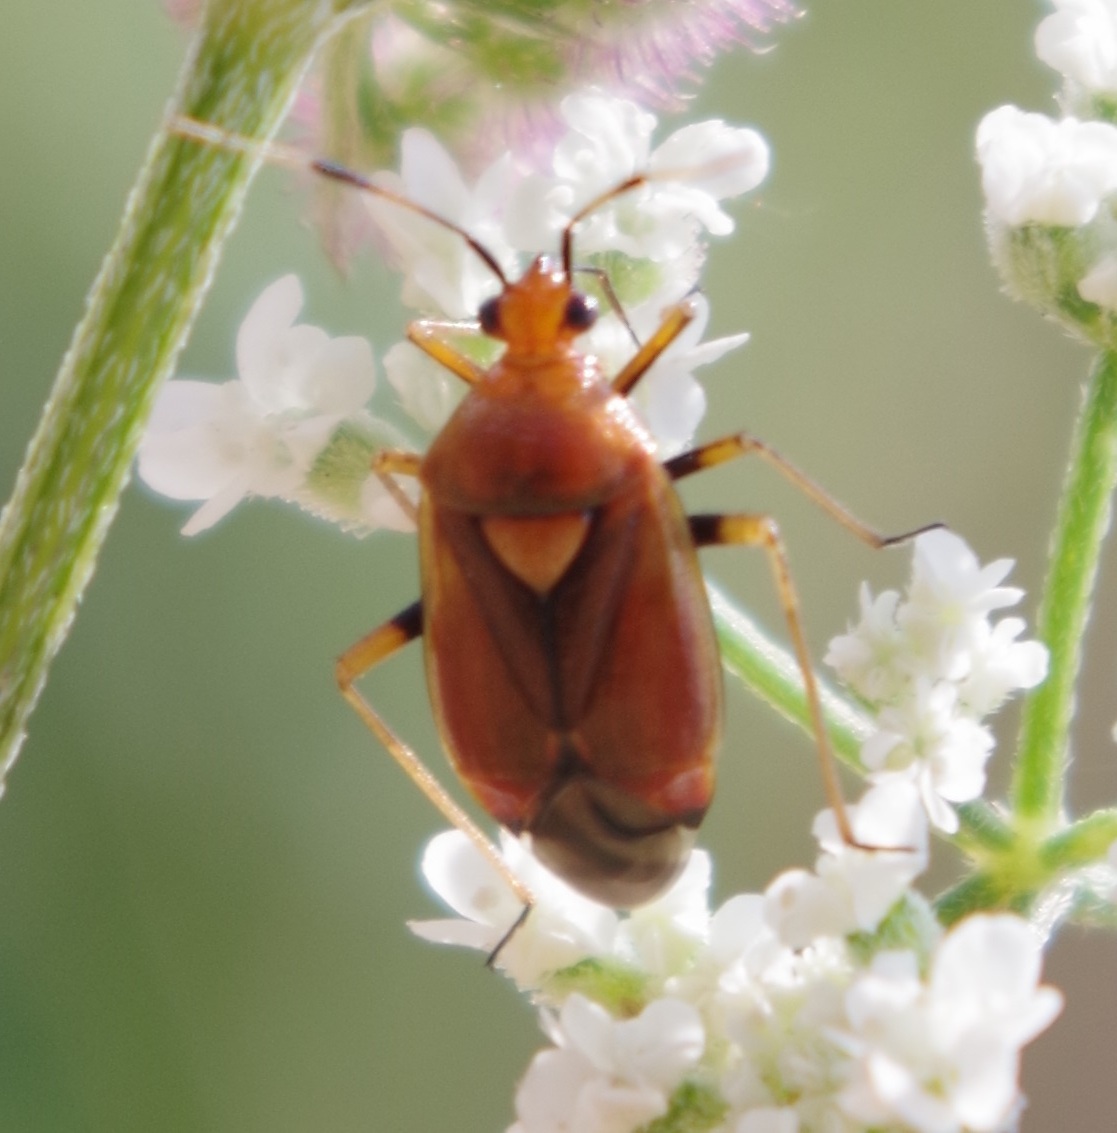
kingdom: Animalia
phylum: Arthropoda
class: Insecta
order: Hemiptera
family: Miridae
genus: Deraeocoris
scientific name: Deraeocoris ruber
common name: Plant bug
